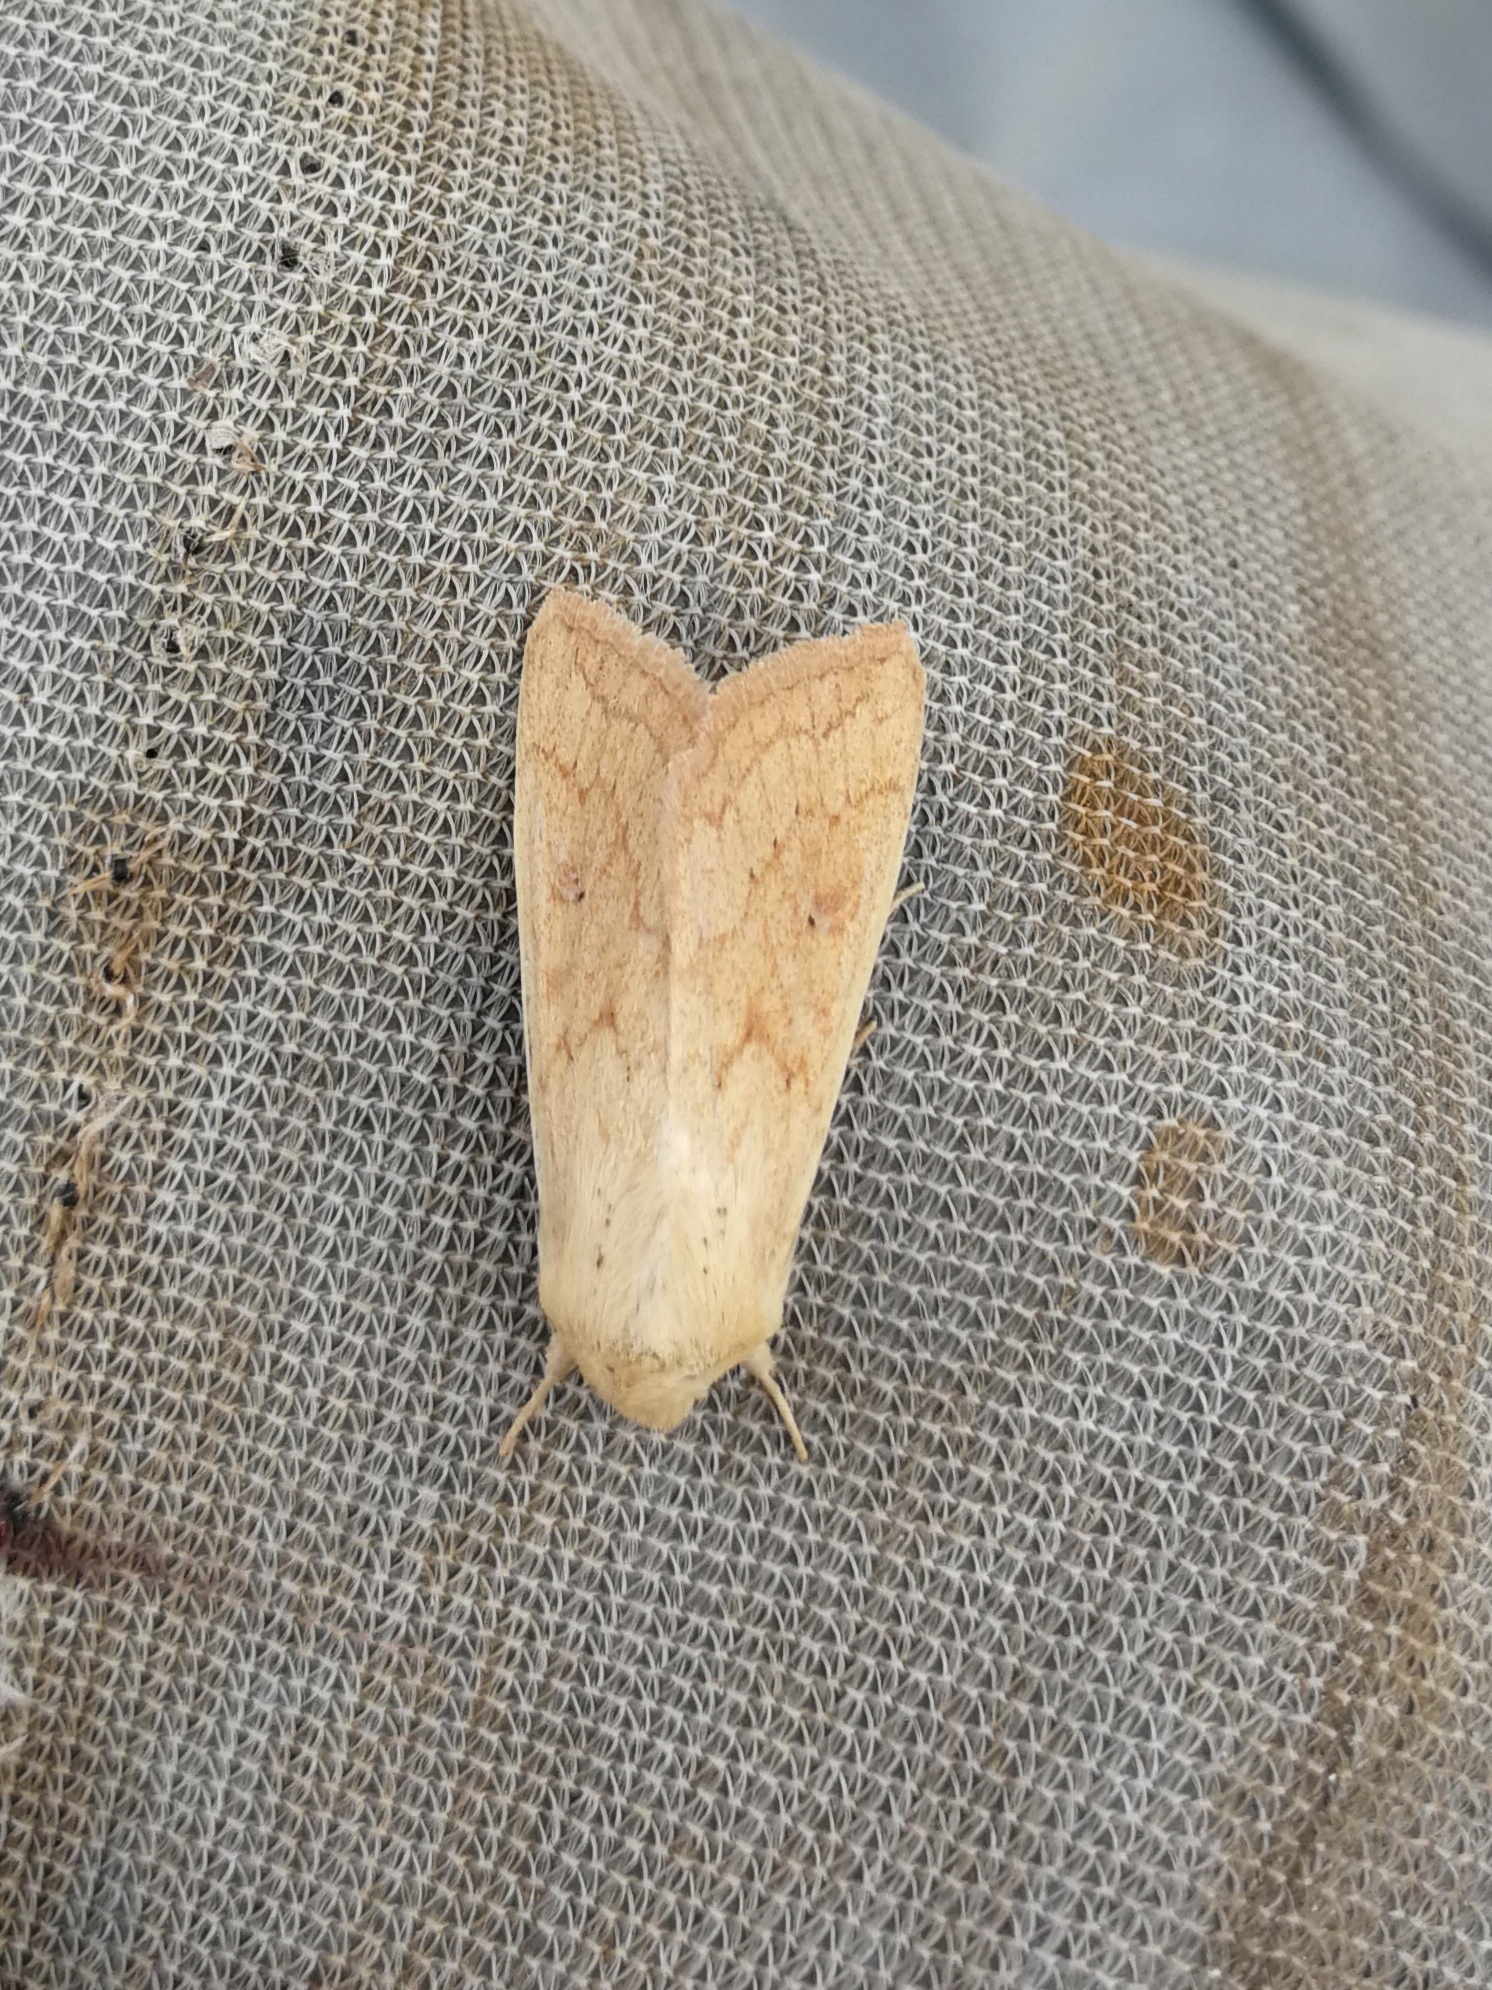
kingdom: Animalia
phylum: Arthropoda
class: Insecta
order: Lepidoptera
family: Noctuidae
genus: Mythimna
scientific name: Mythimna vitellina
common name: Delicate
